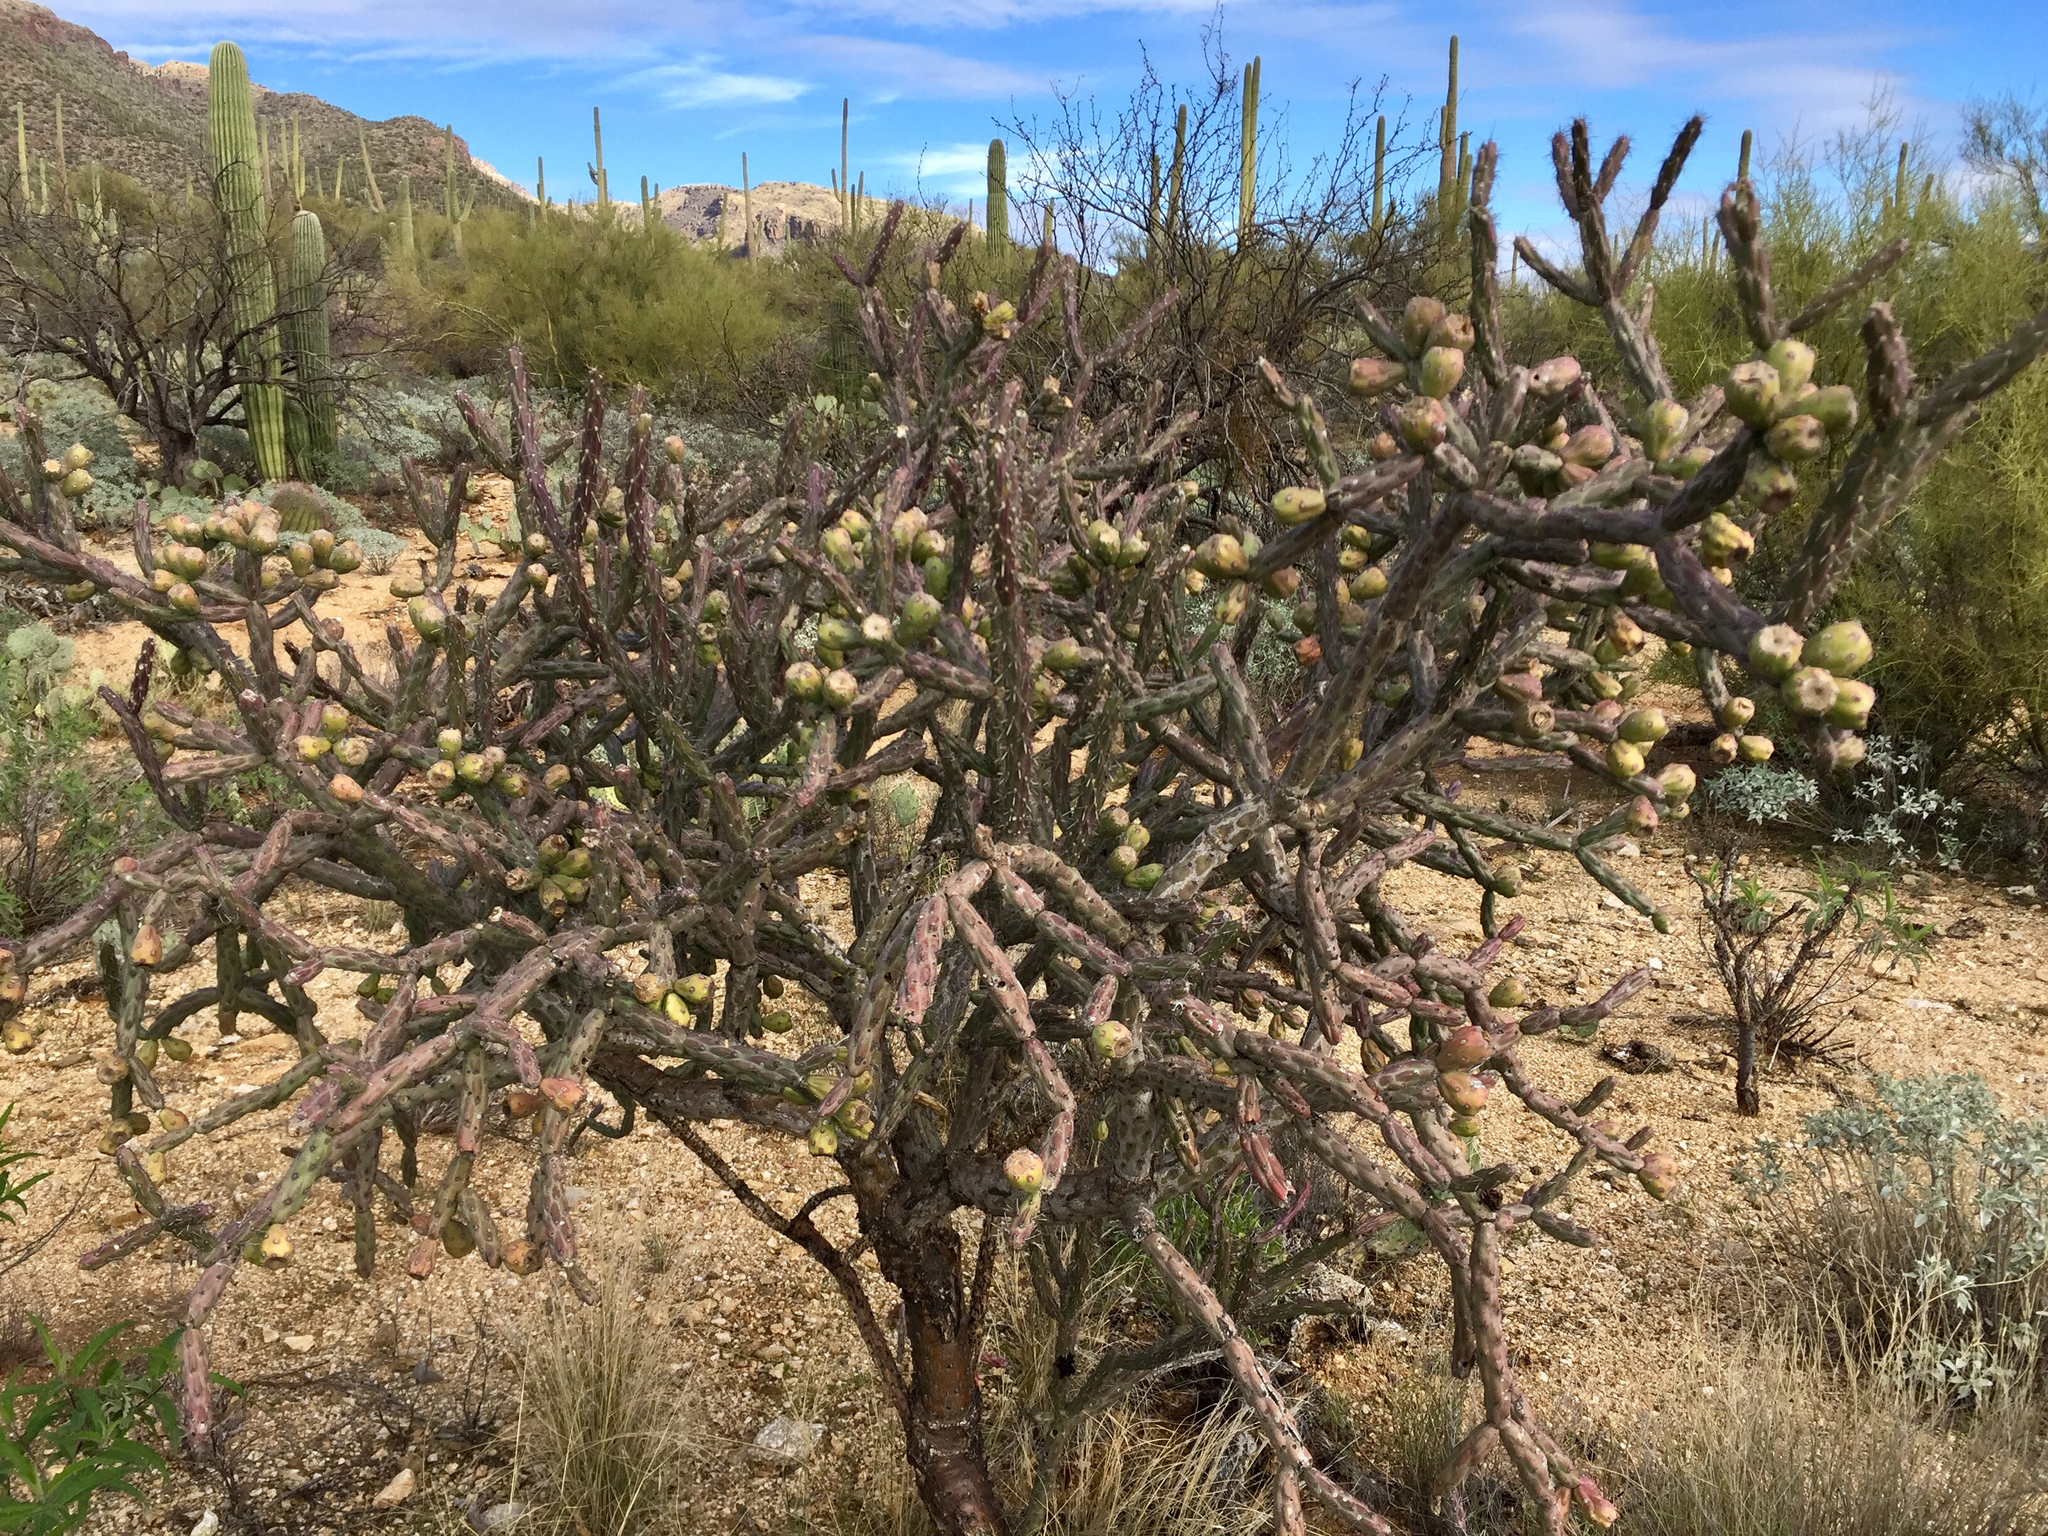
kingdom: Plantae
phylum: Tracheophyta
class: Magnoliopsida
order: Caryophyllales
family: Cactaceae
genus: Cylindropuntia
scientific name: Cylindropuntia thurberi
